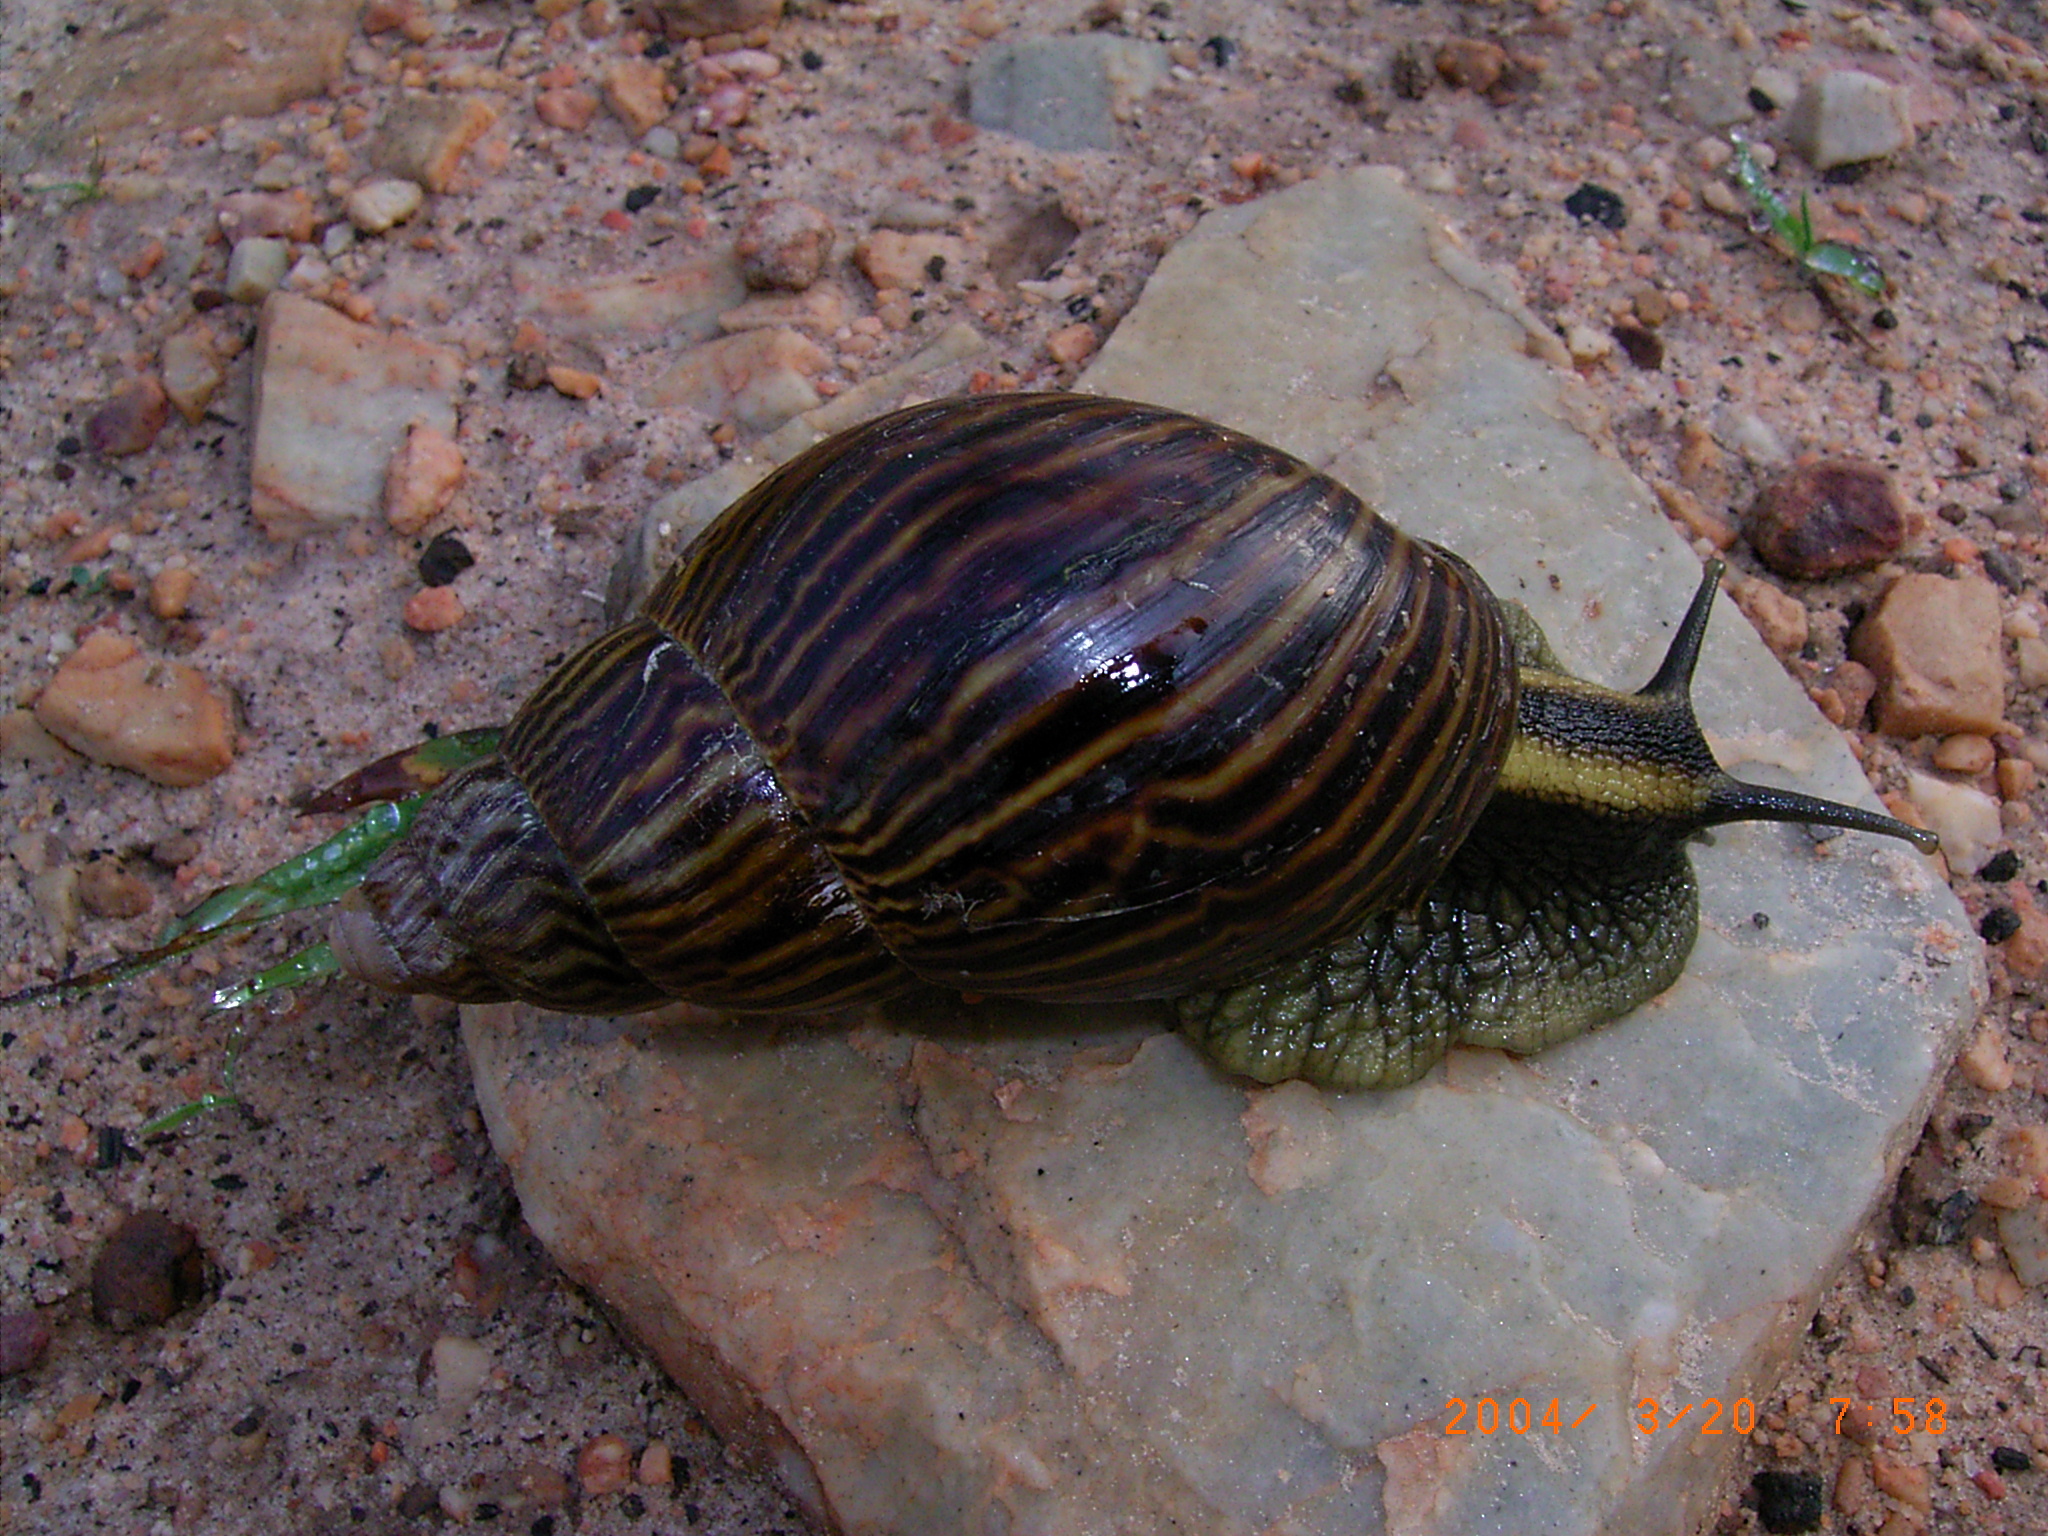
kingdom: Animalia
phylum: Mollusca
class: Gastropoda
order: Stylommatophora
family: Achatinidae
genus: Cochlitoma
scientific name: Cochlitoma zebra
